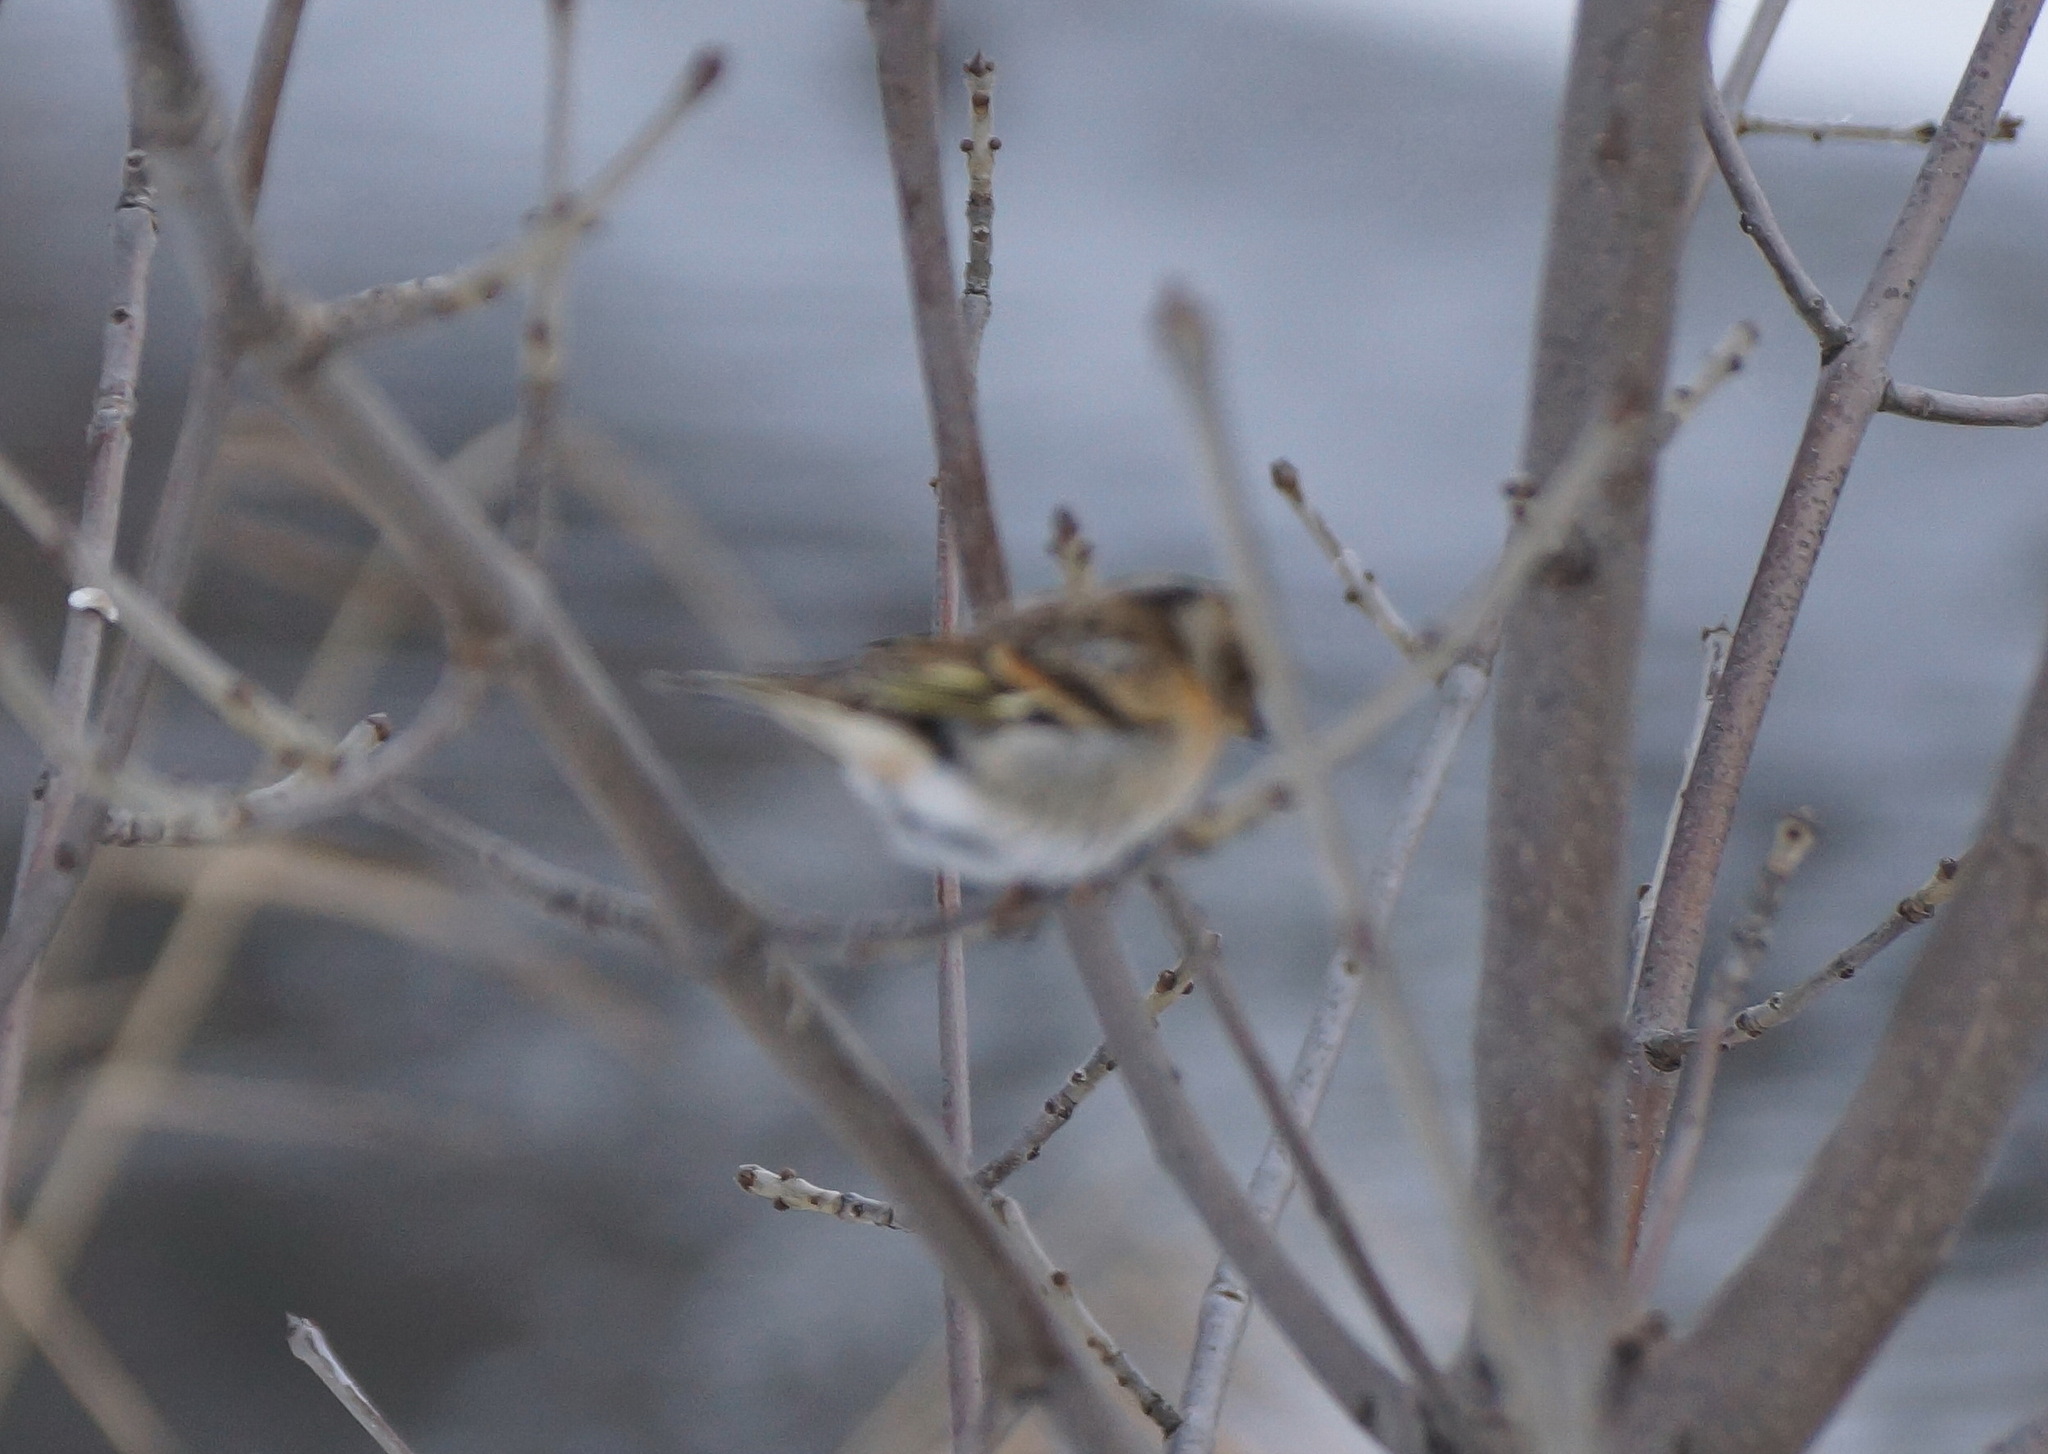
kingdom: Animalia
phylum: Chordata
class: Aves
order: Passeriformes
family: Fringillidae
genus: Fringilla
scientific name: Fringilla montifringilla
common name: Brambling
